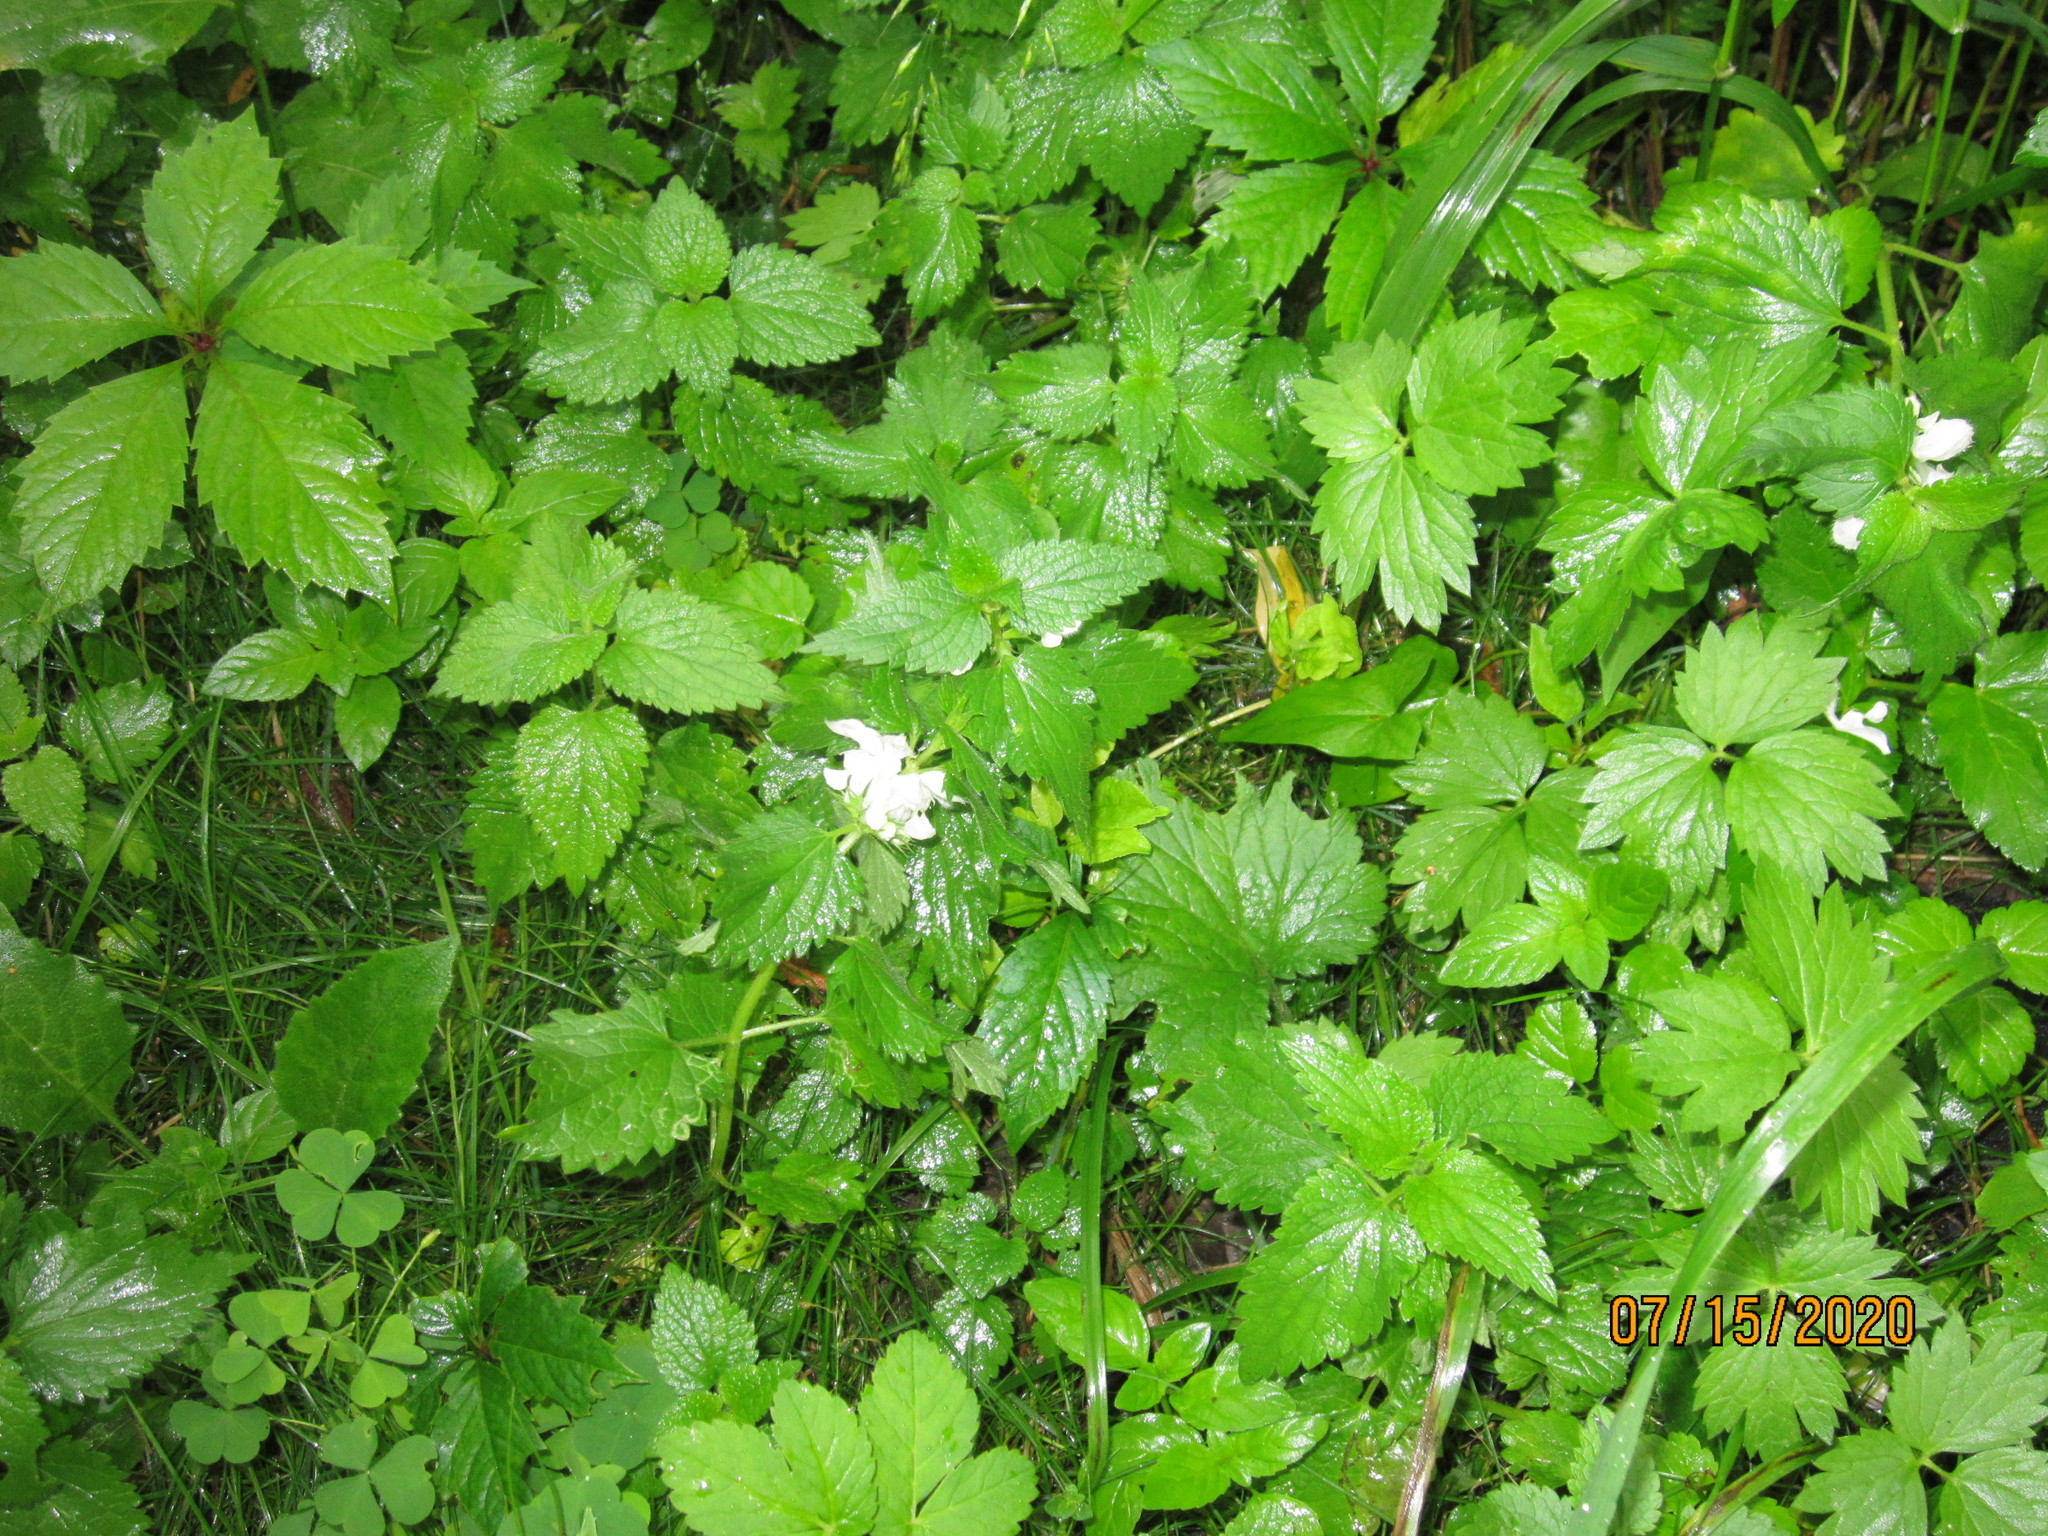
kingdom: Plantae
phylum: Tracheophyta
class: Magnoliopsida
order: Lamiales
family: Lamiaceae
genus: Lamium
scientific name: Lamium album
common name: White dead-nettle
